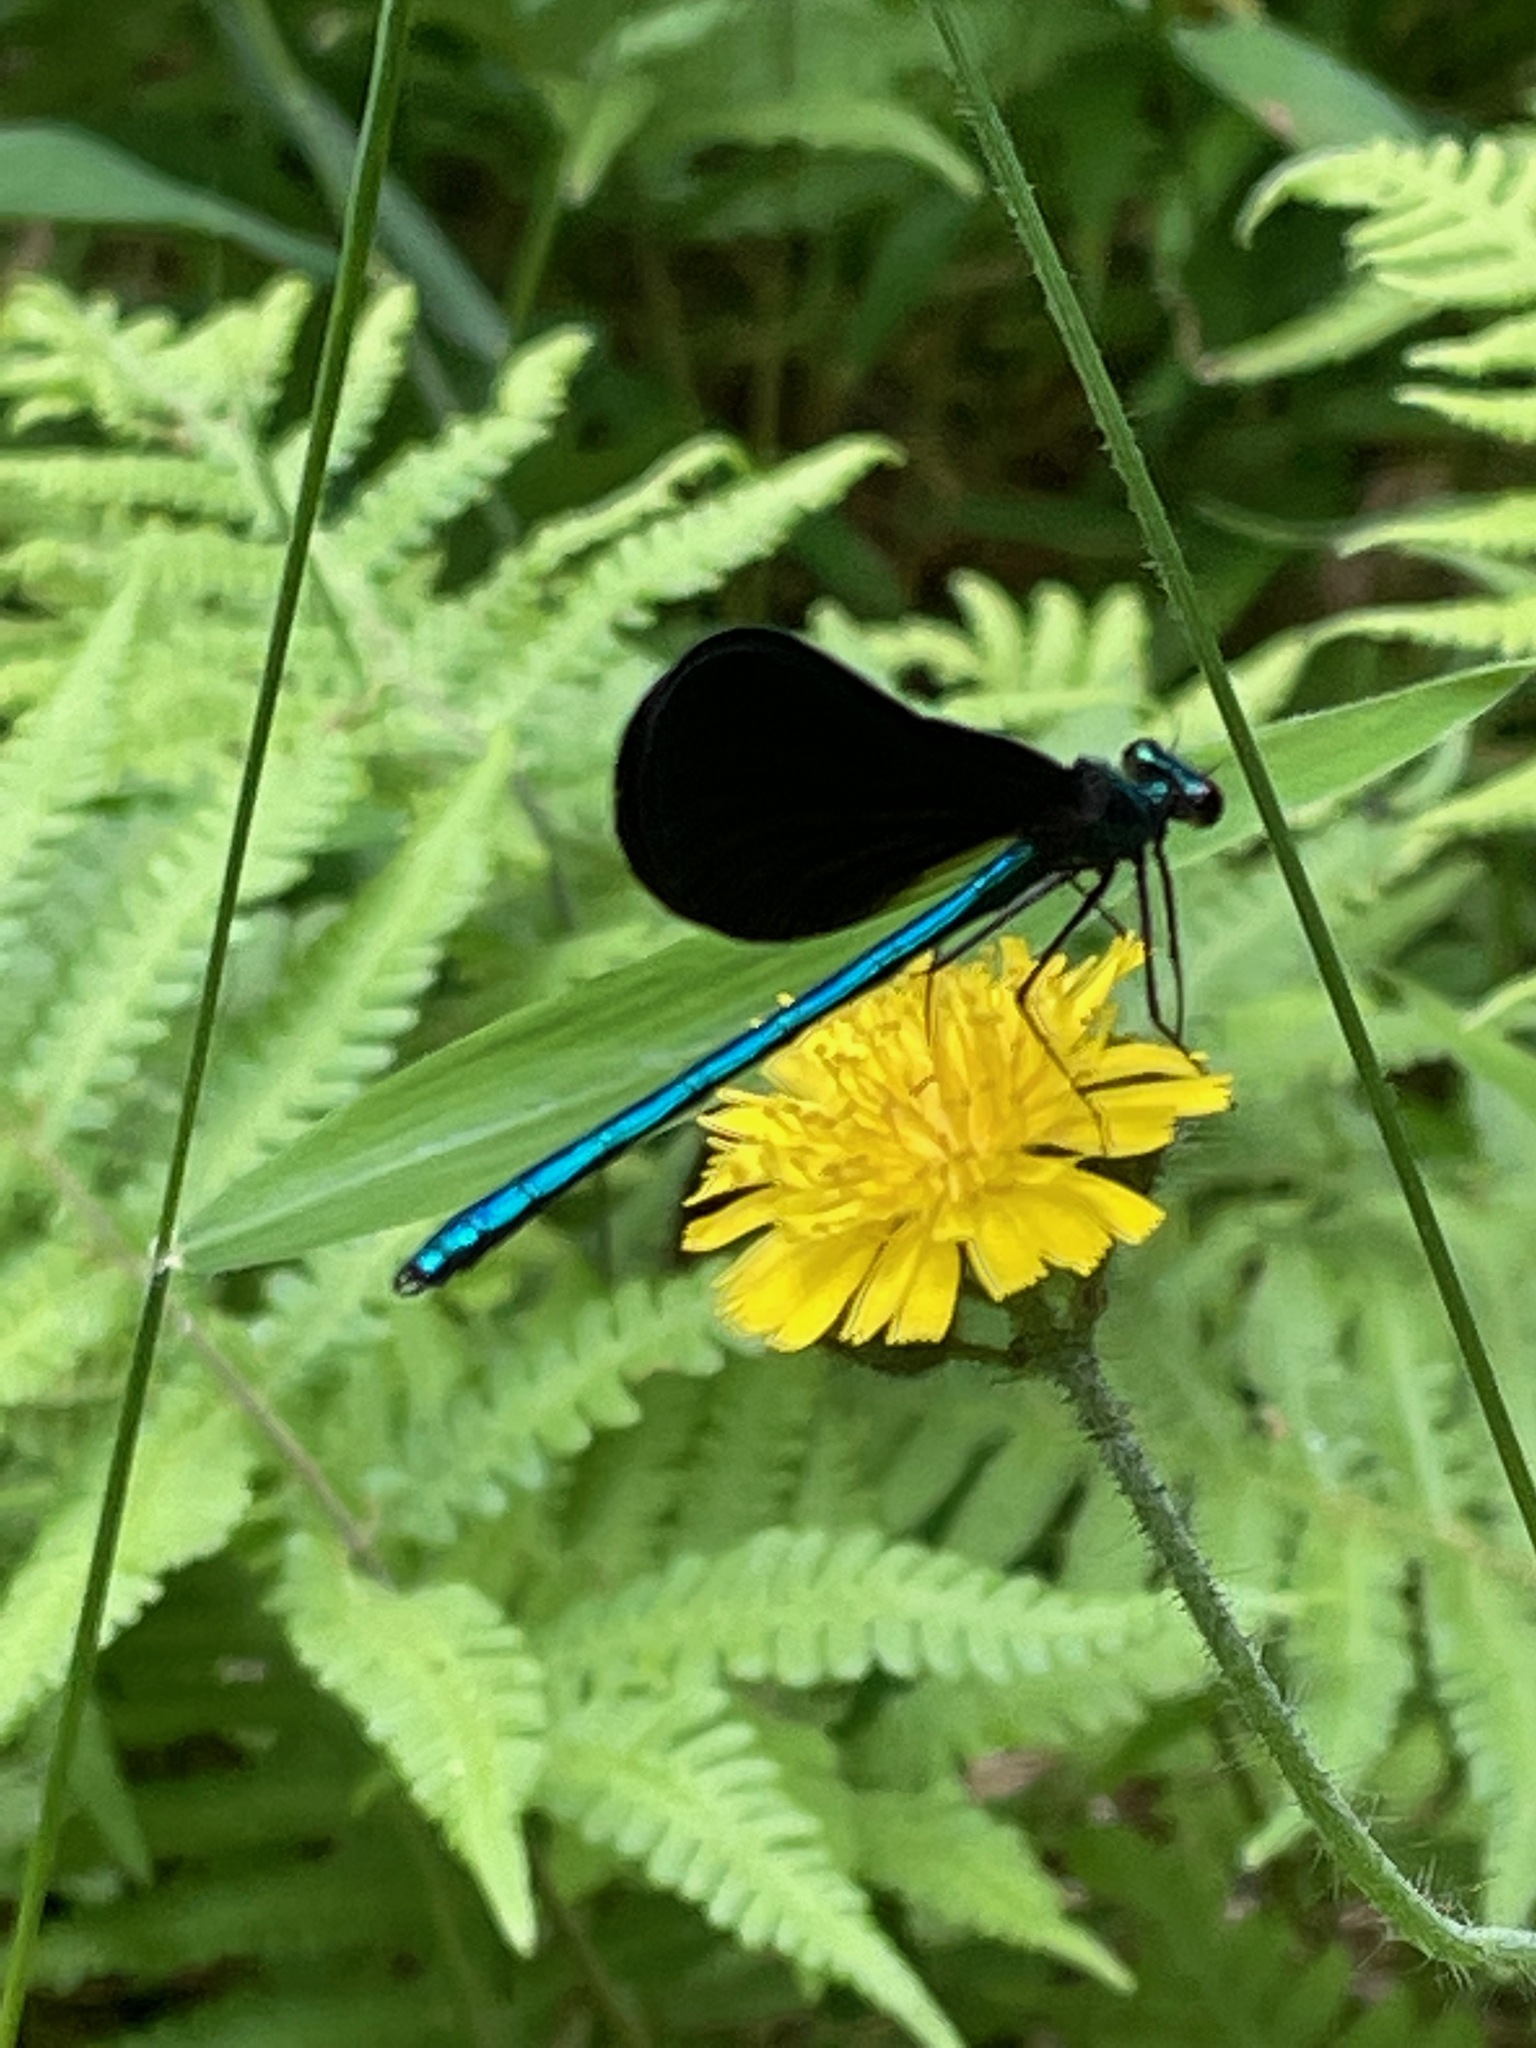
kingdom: Animalia
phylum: Arthropoda
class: Insecta
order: Odonata
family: Calopterygidae
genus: Calopteryx
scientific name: Calopteryx maculata
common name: Ebony jewelwing
